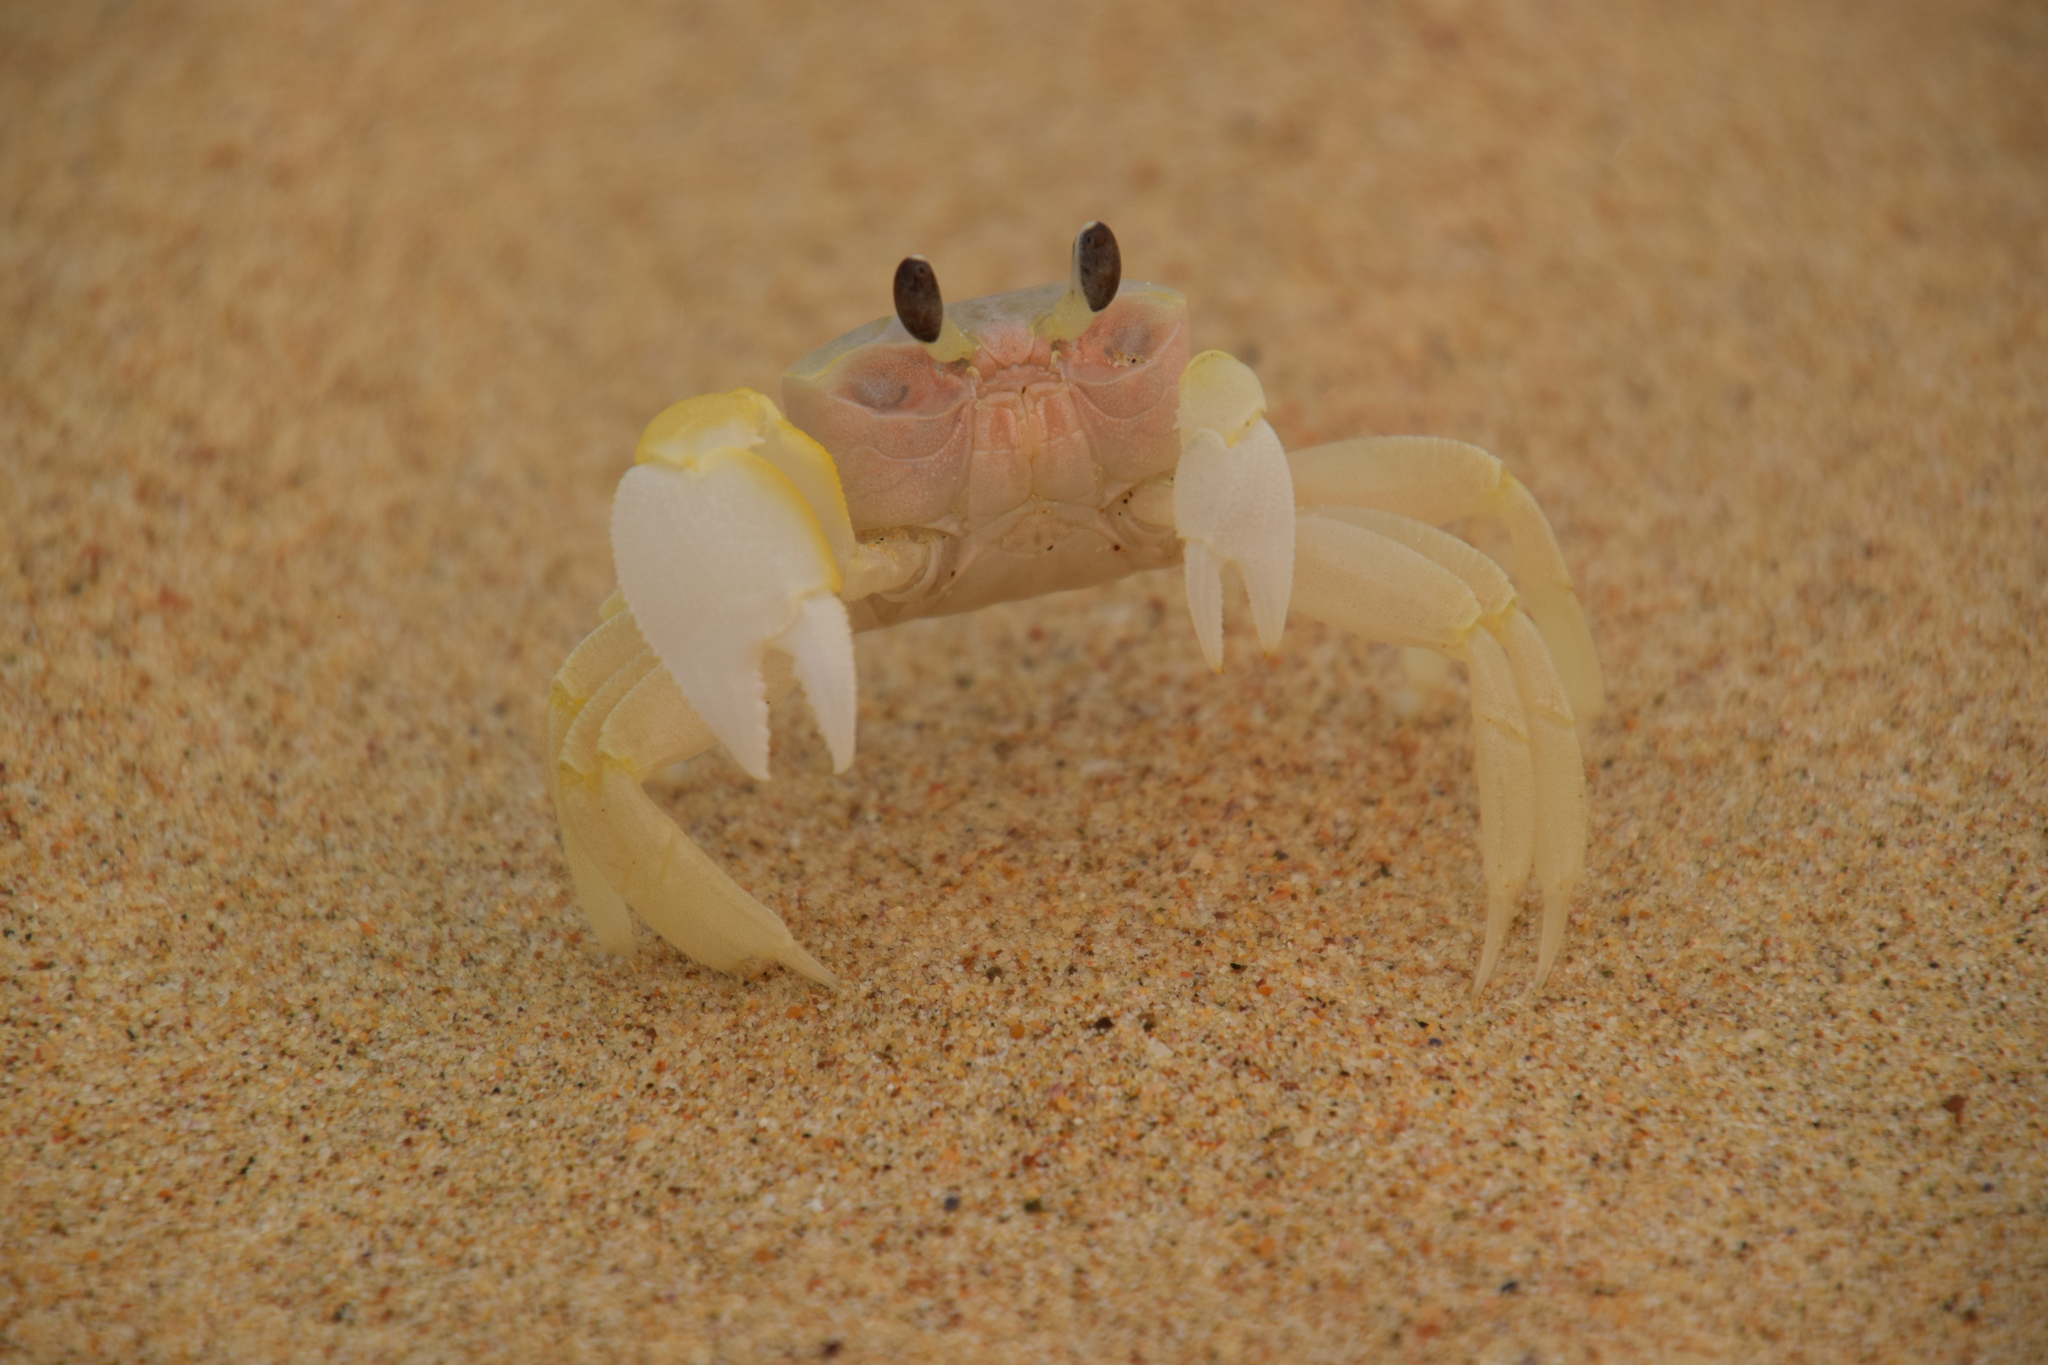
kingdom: Animalia
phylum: Arthropoda
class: Malacostraca
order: Decapoda
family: Ocypodidae
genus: Ocypode
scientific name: Ocypode cordimana
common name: Smooth-eyed ghost crab
